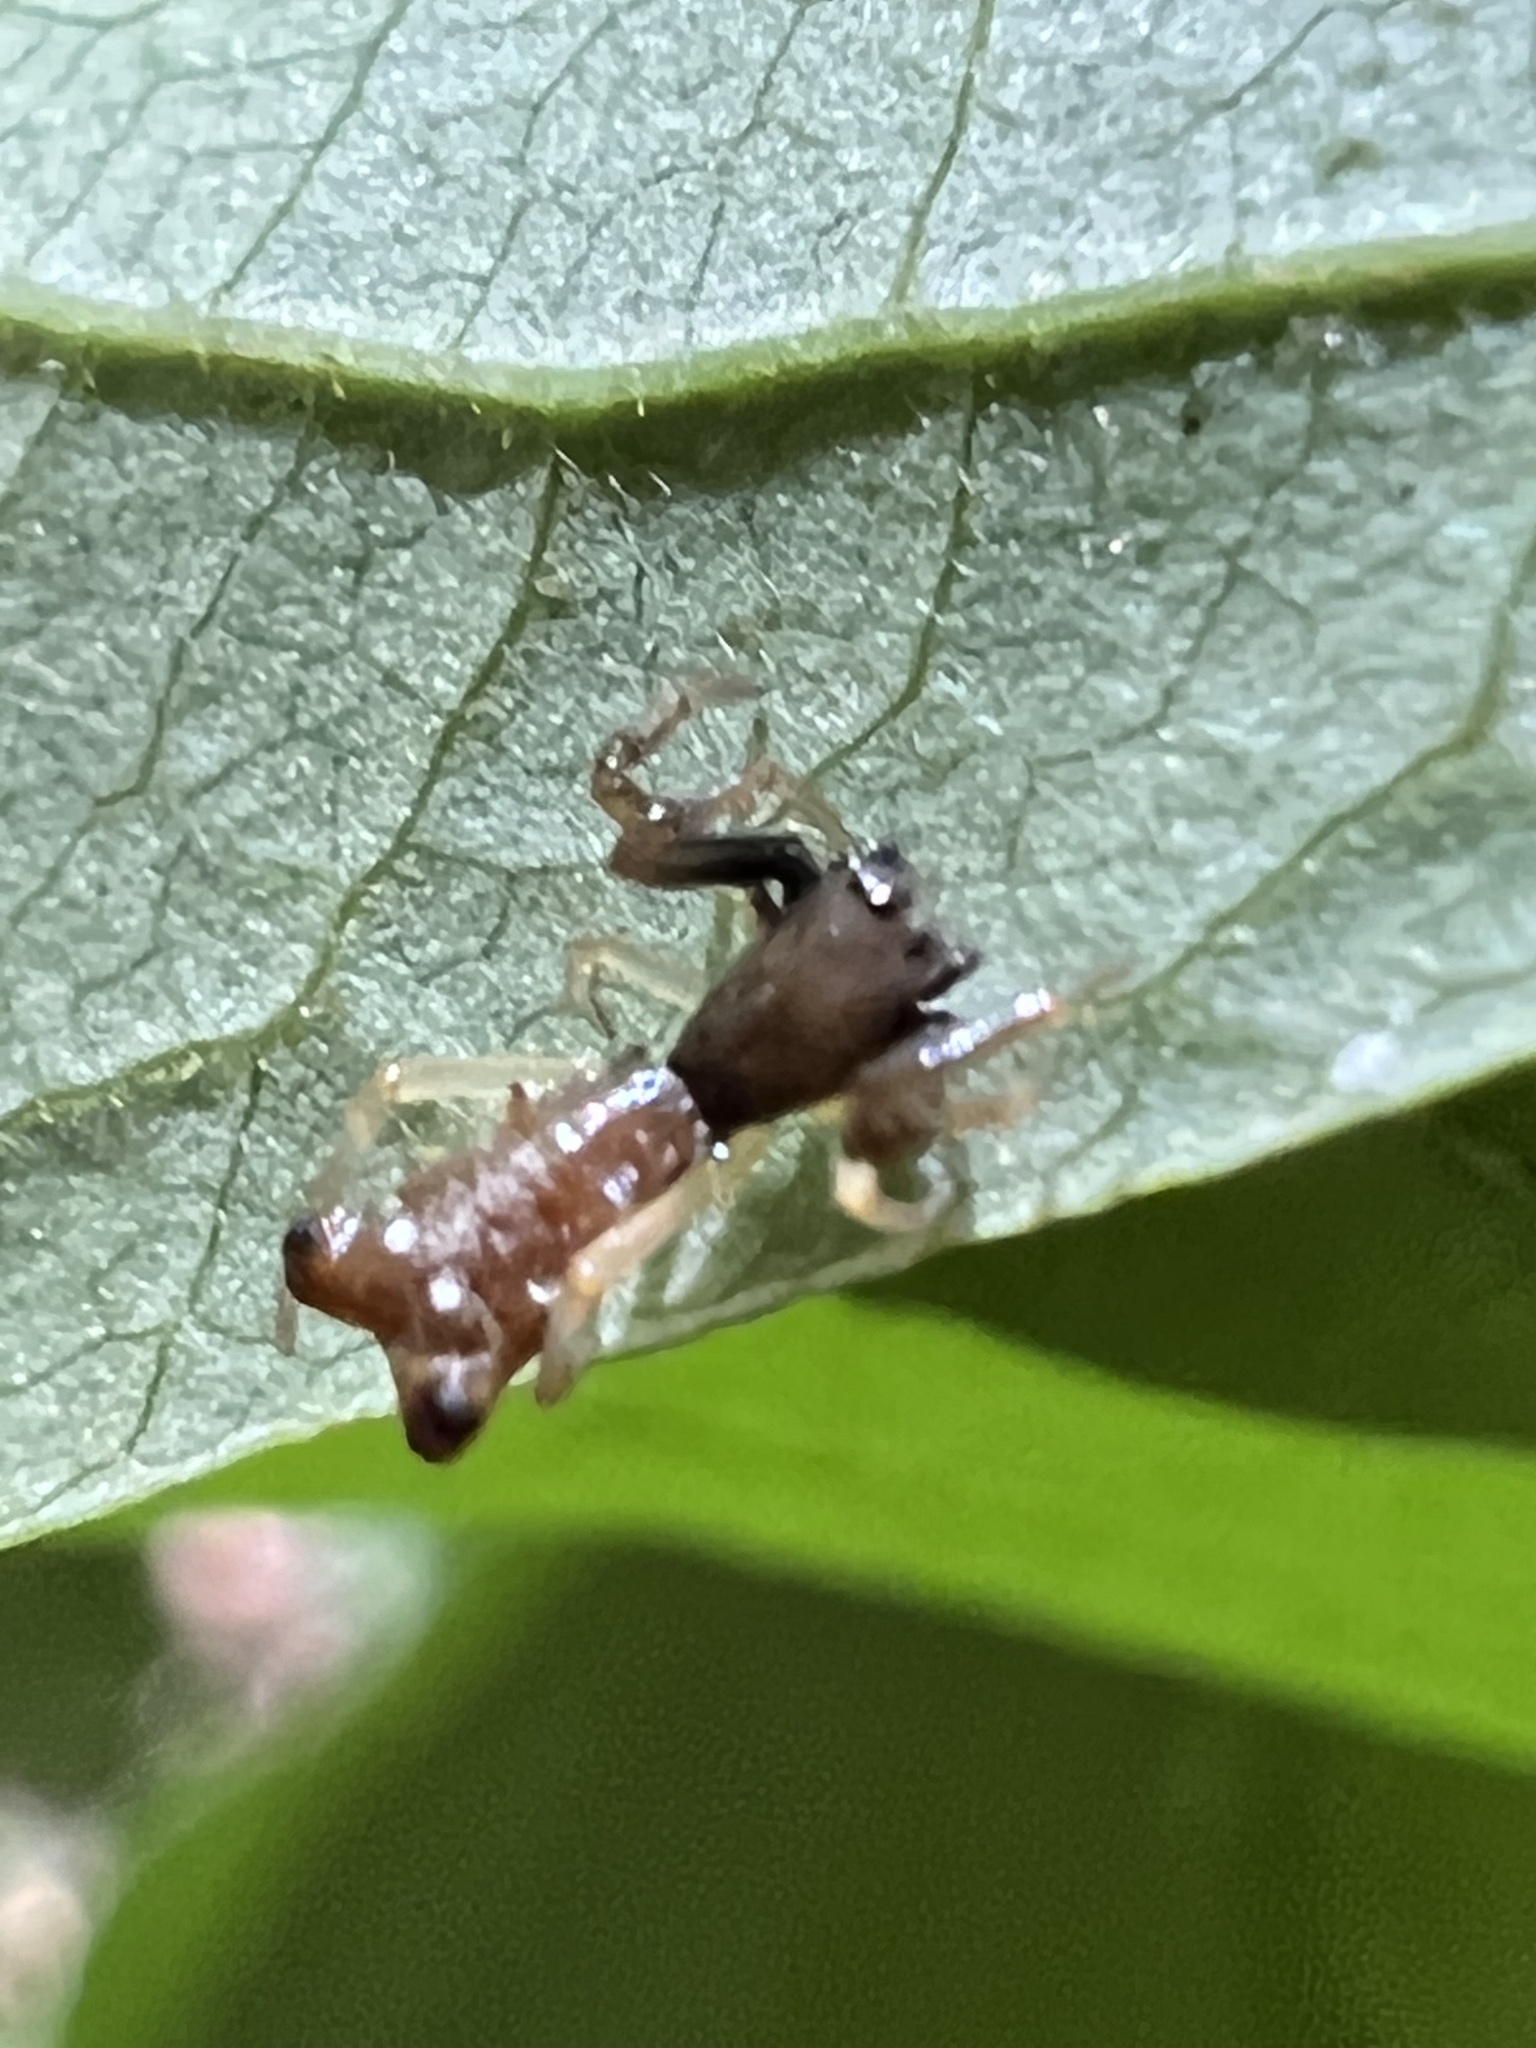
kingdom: Animalia
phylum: Arthropoda
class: Arachnida
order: Araneae
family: Araneidae
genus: Micrathena
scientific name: Micrathena sagittata
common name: Orb weavers
